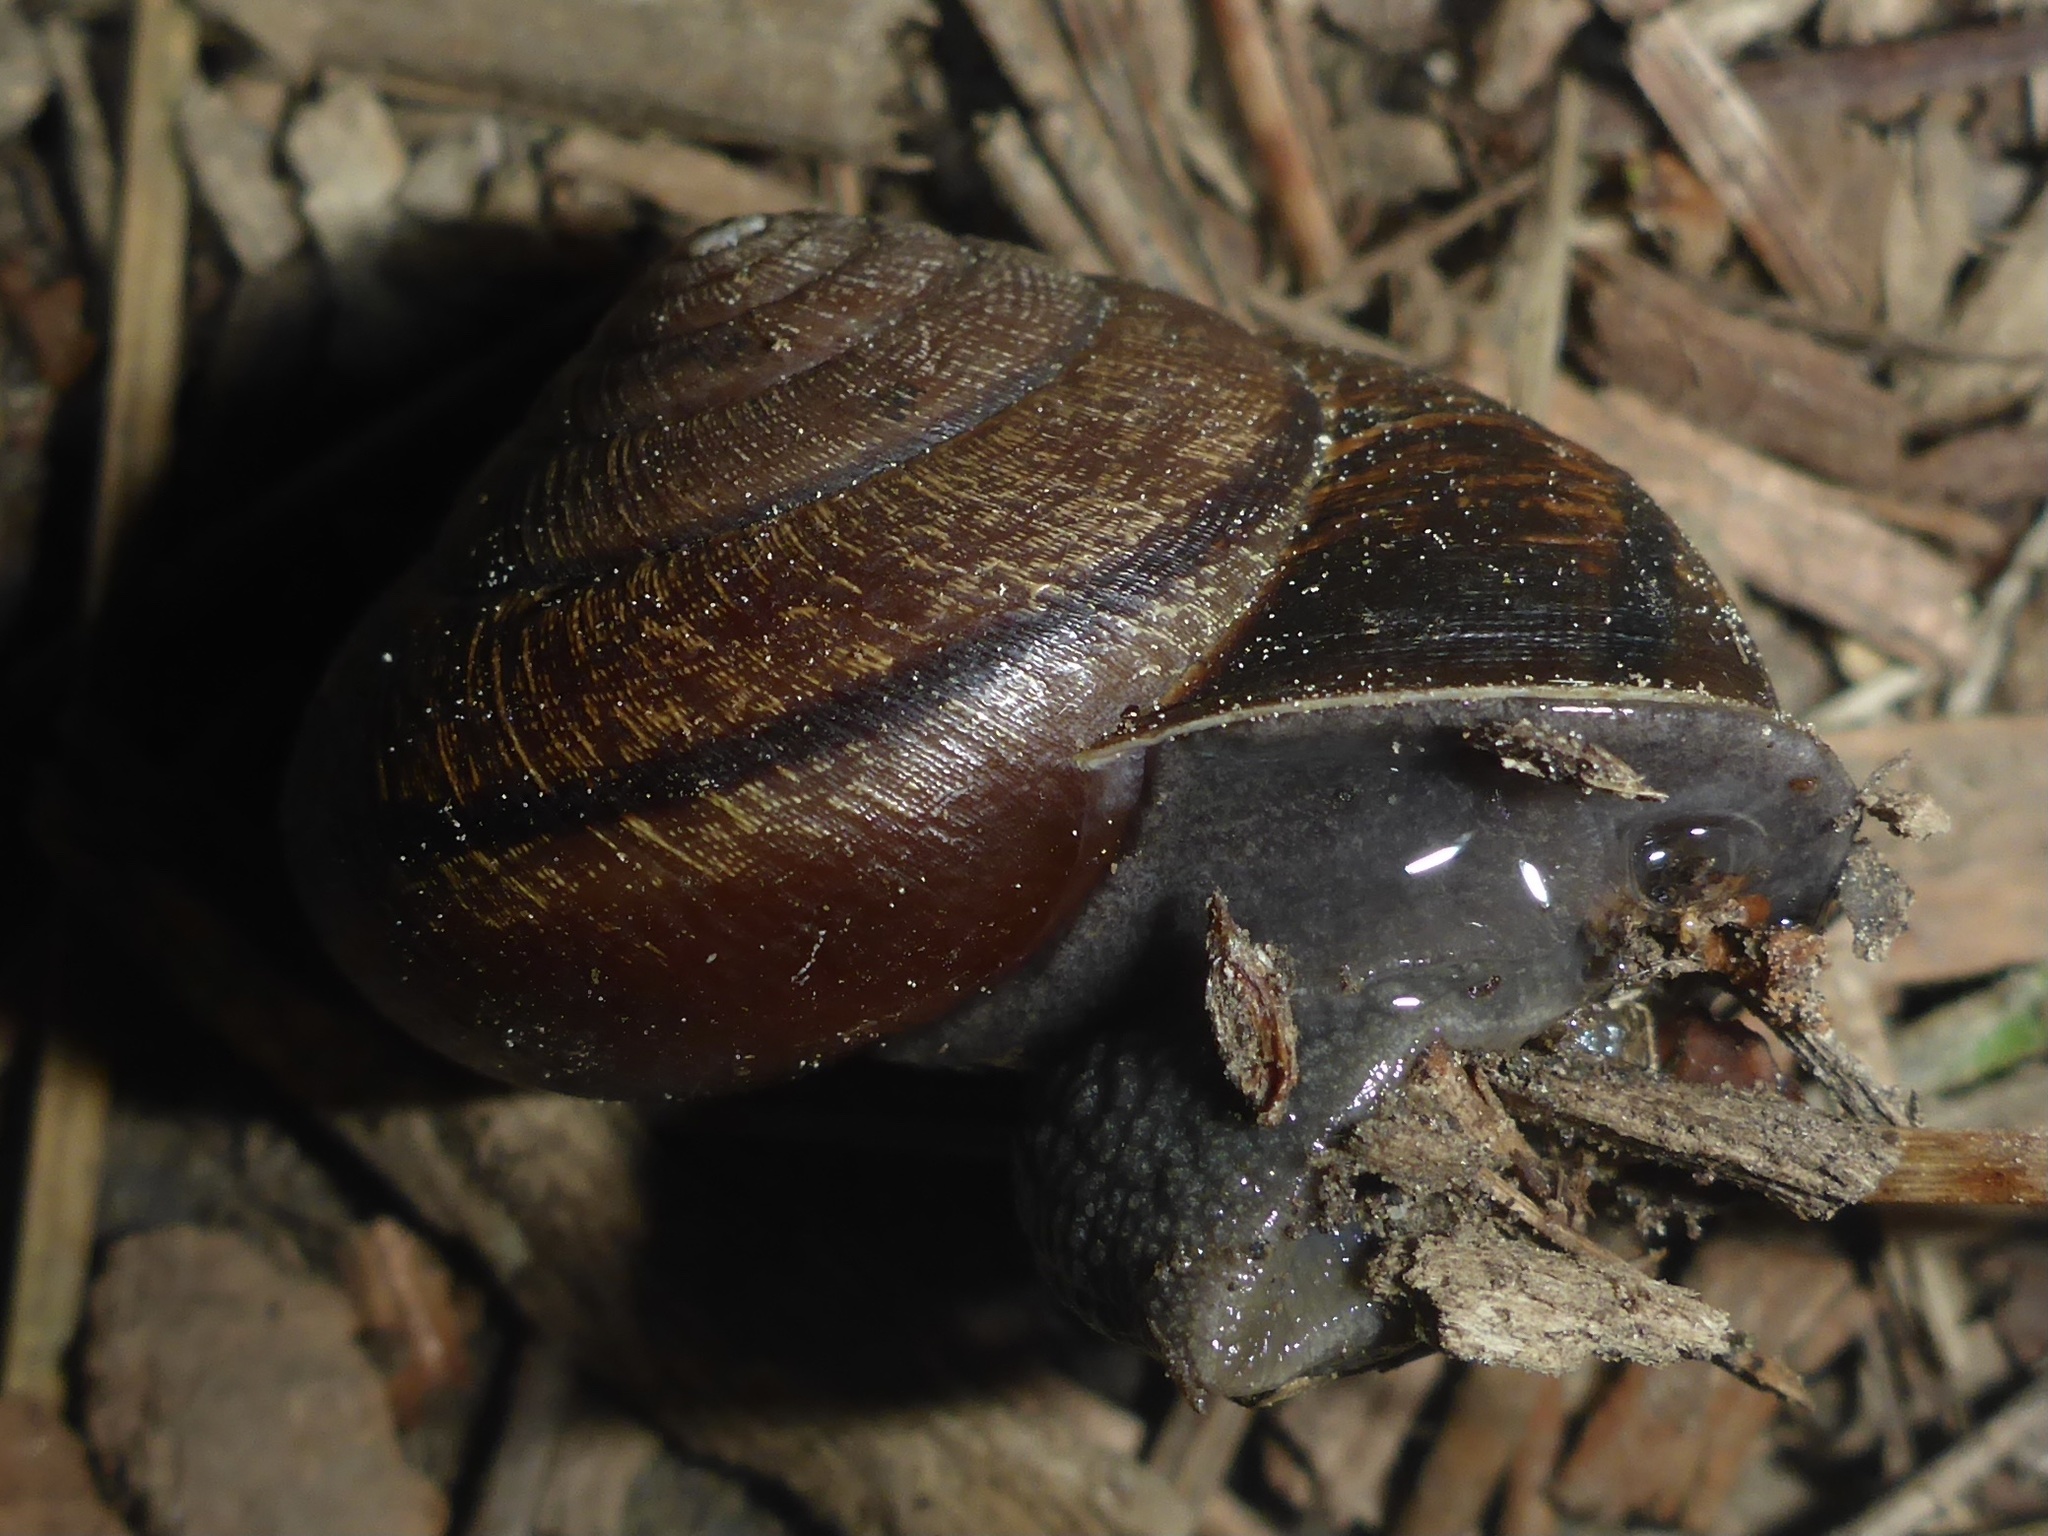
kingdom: Animalia
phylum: Mollusca
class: Gastropoda
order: Stylommatophora
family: Xanthonychidae
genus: Helminthoglypta
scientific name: Helminthoglypta arrosa
